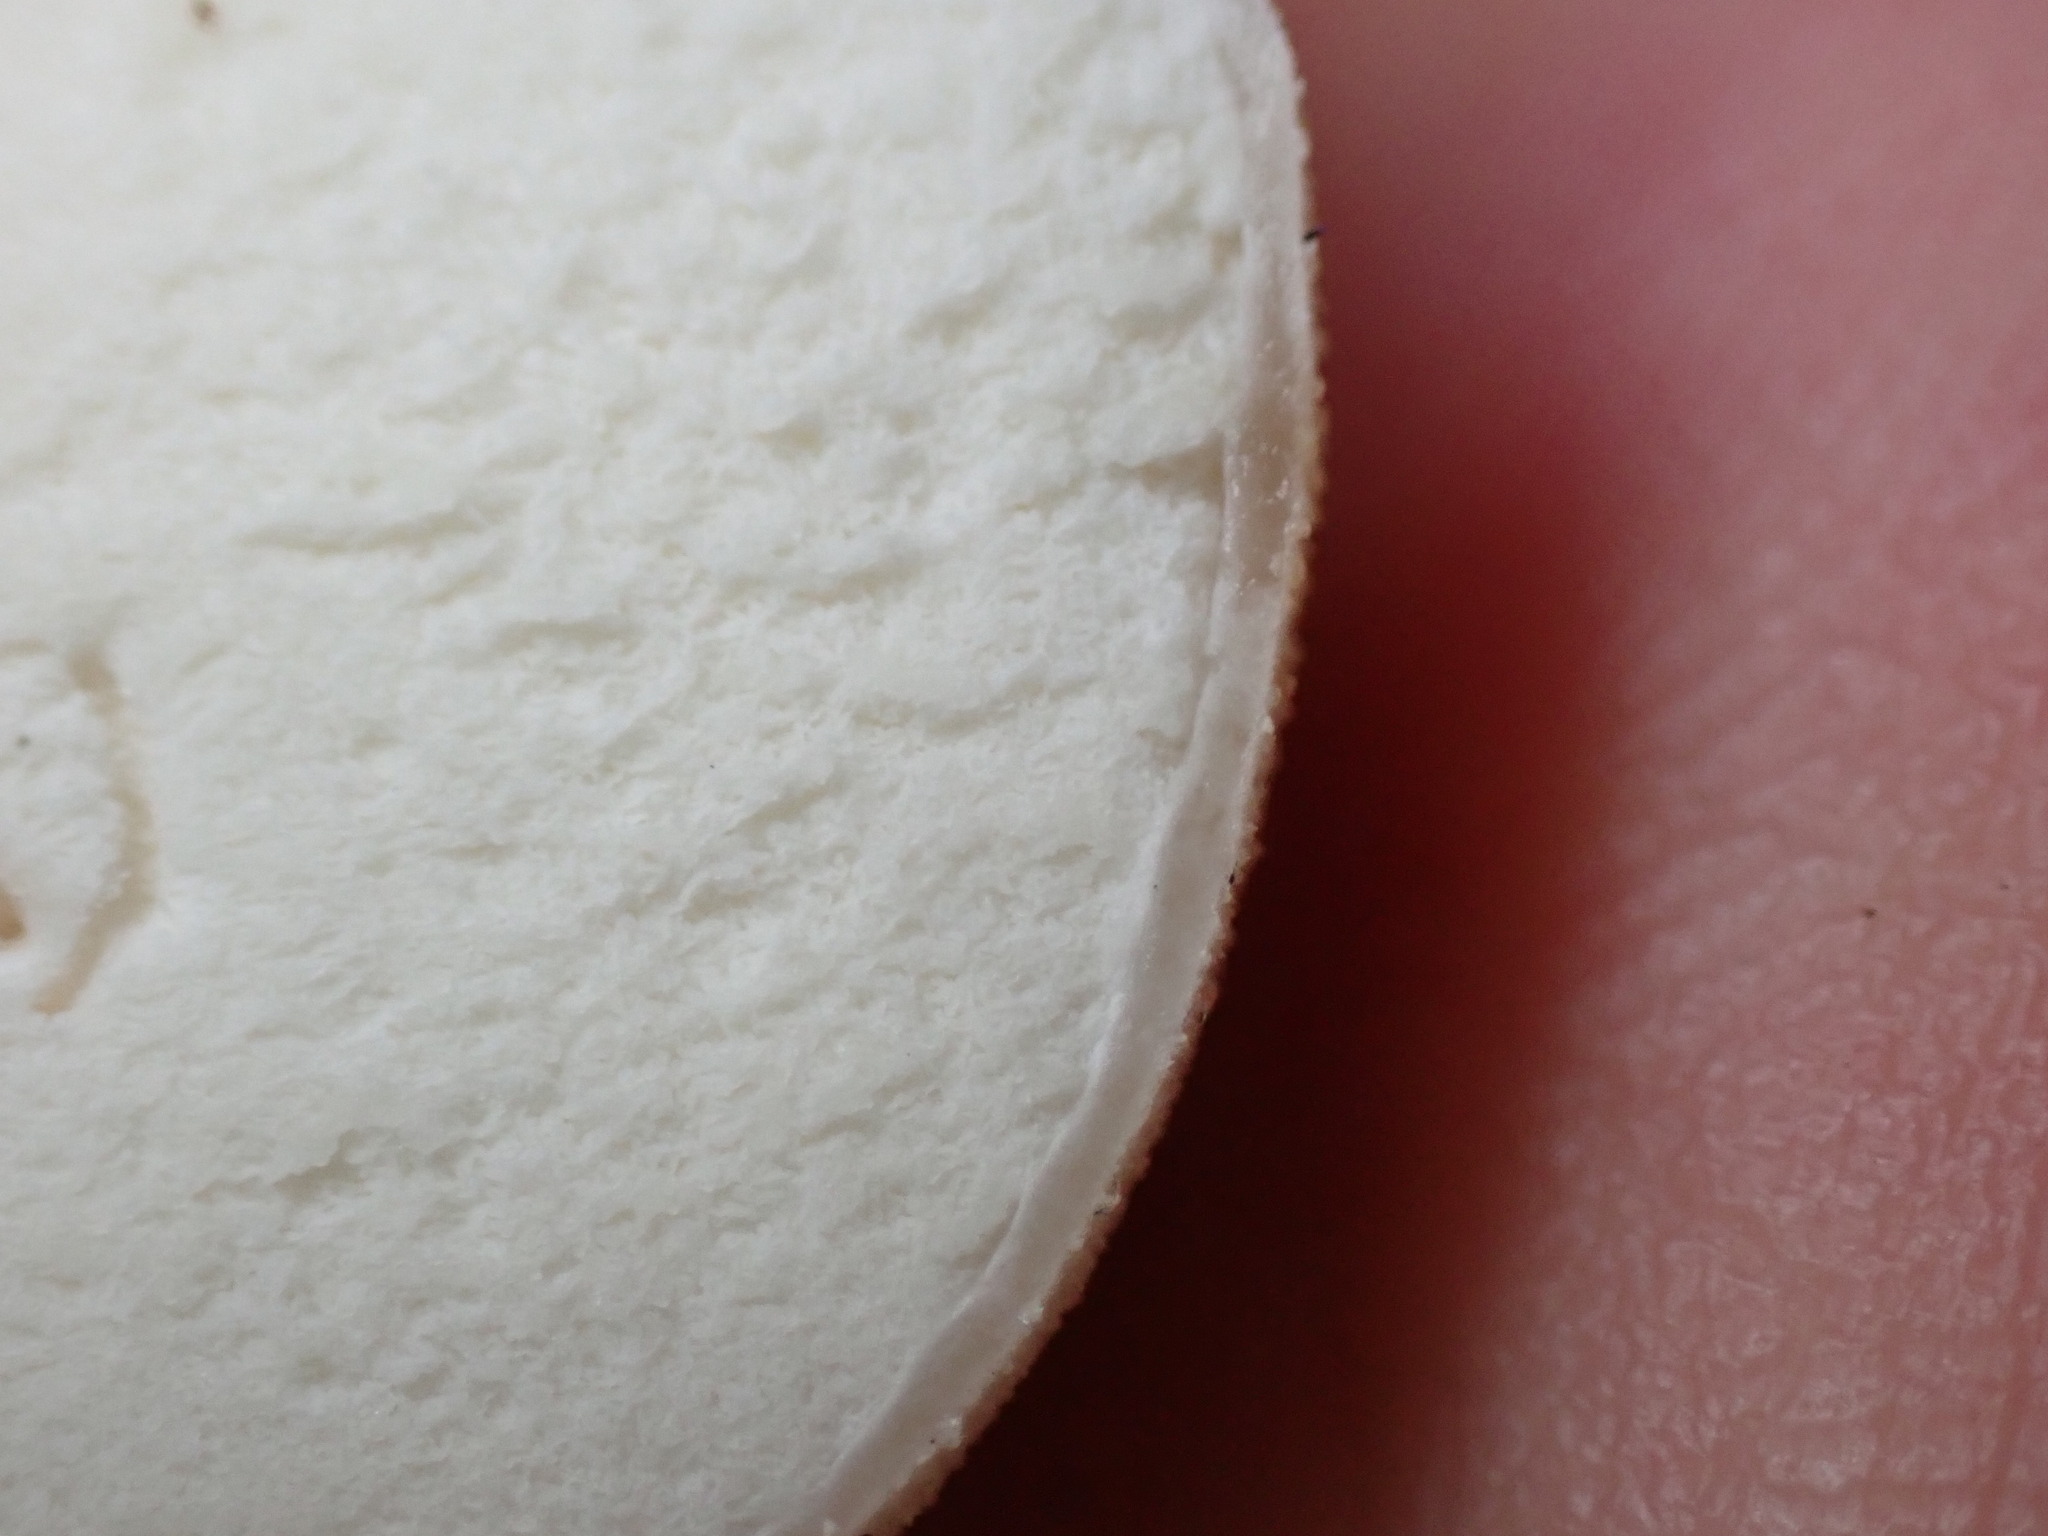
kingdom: Fungi
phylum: Basidiomycota
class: Agaricomycetes
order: Agaricales
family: Lycoperdaceae
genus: Lycoperdon
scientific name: Lycoperdon perlatum
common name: Common puffball
